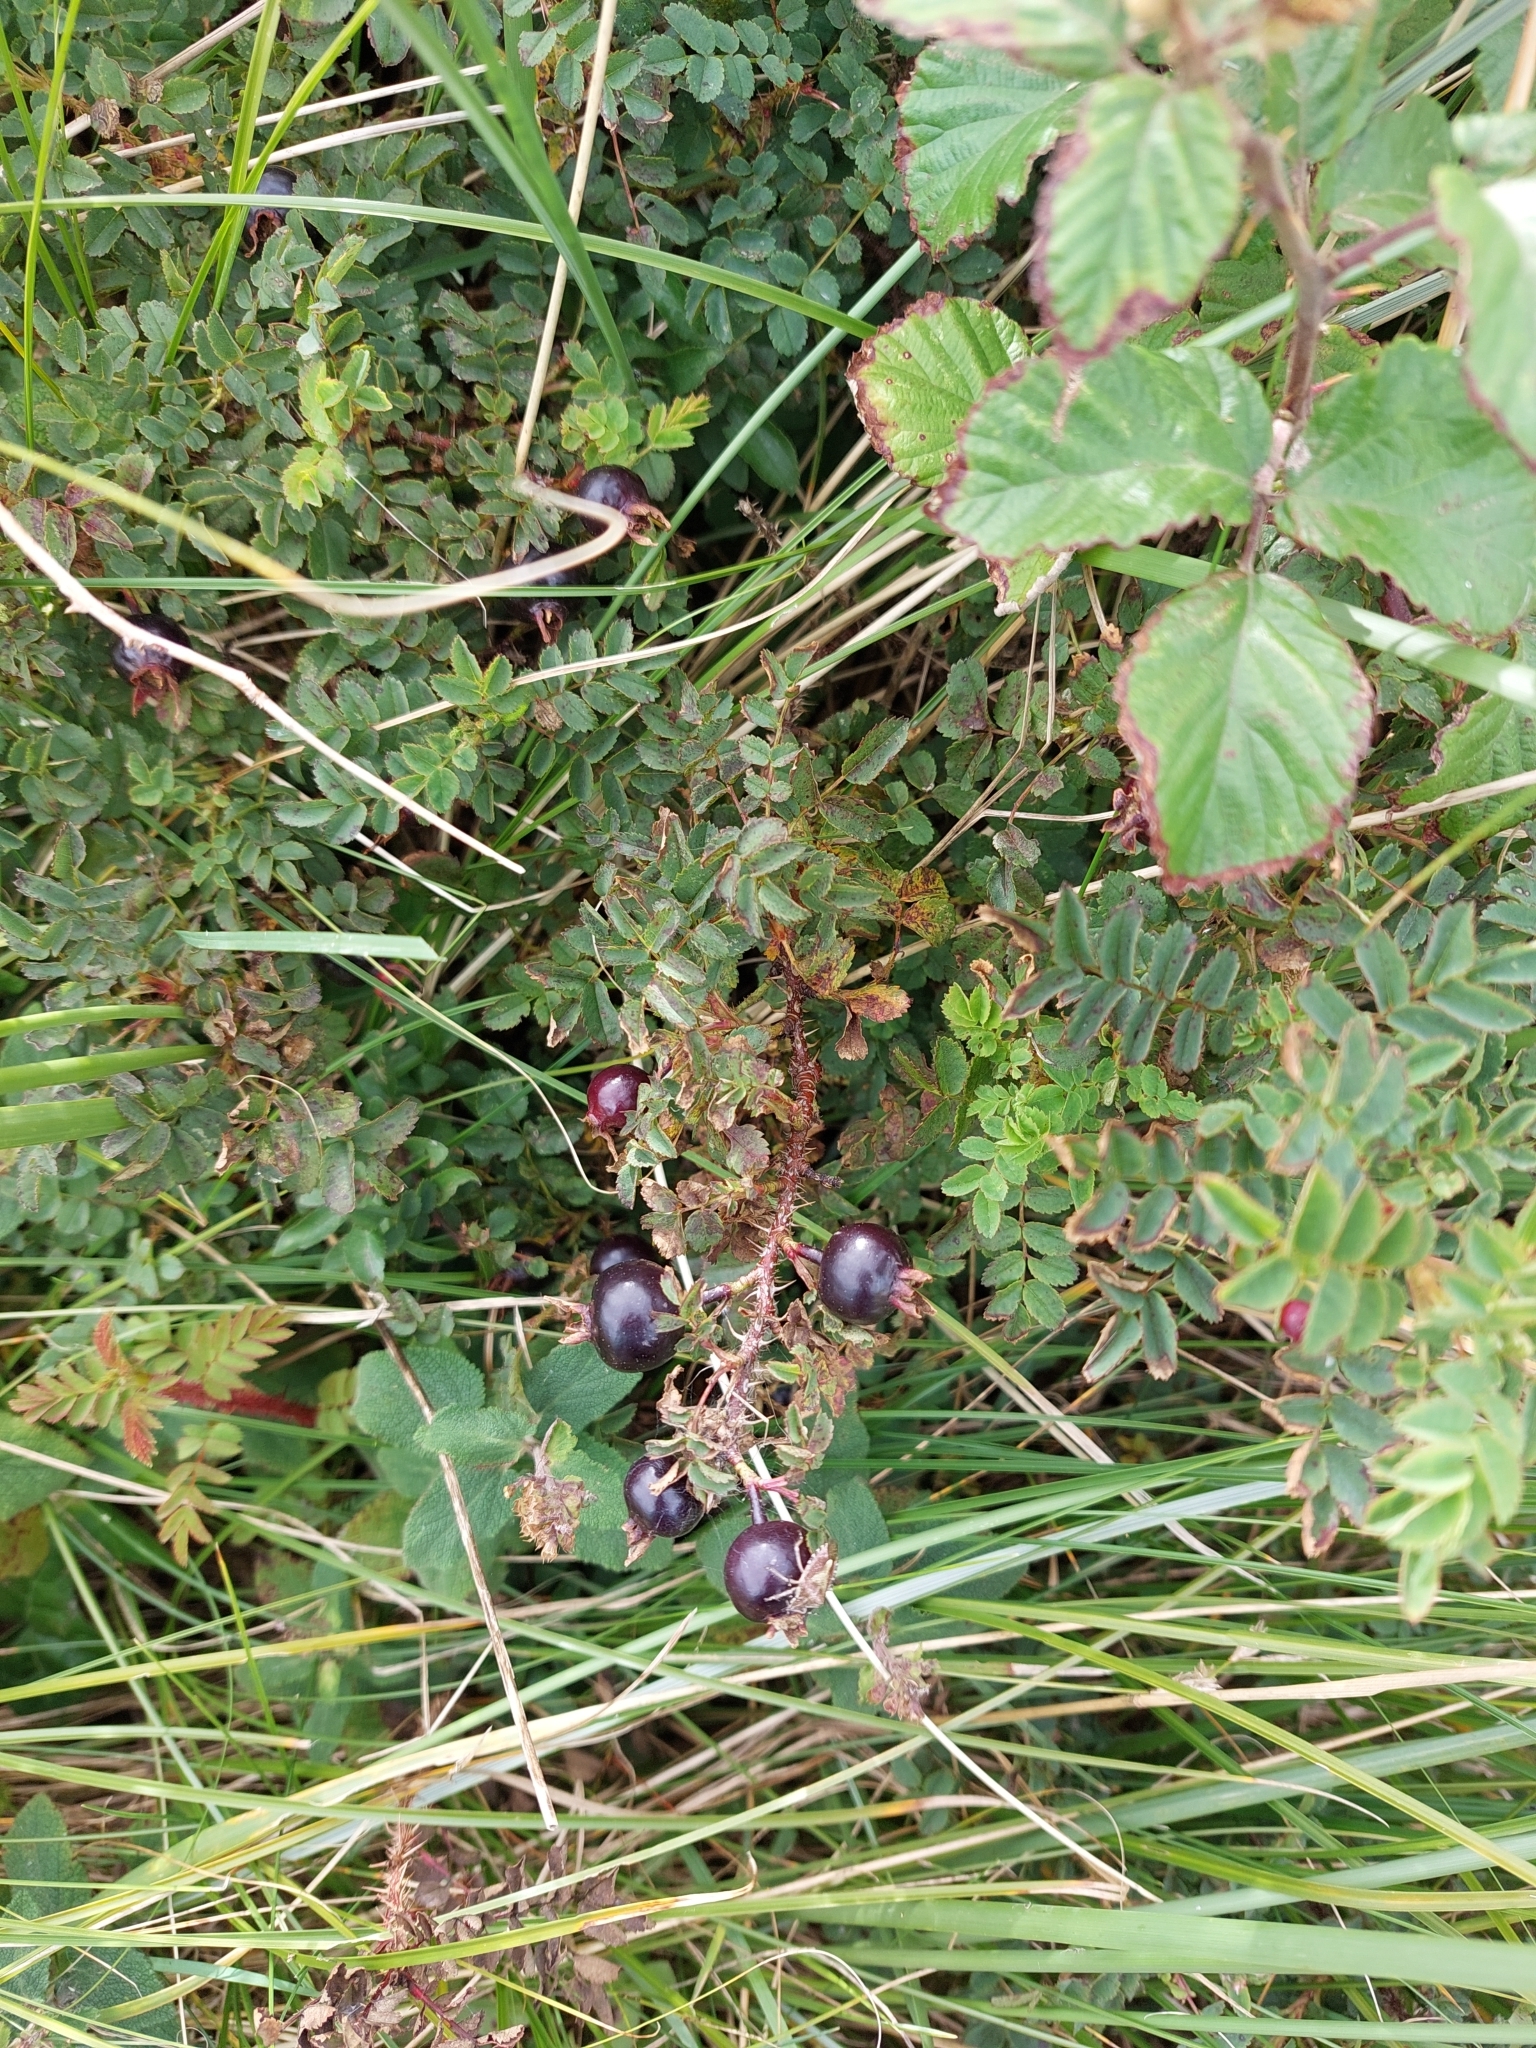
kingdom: Plantae
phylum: Tracheophyta
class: Magnoliopsida
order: Rosales
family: Rosaceae
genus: Rosa
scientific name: Rosa spinosissima
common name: Burnet rose
